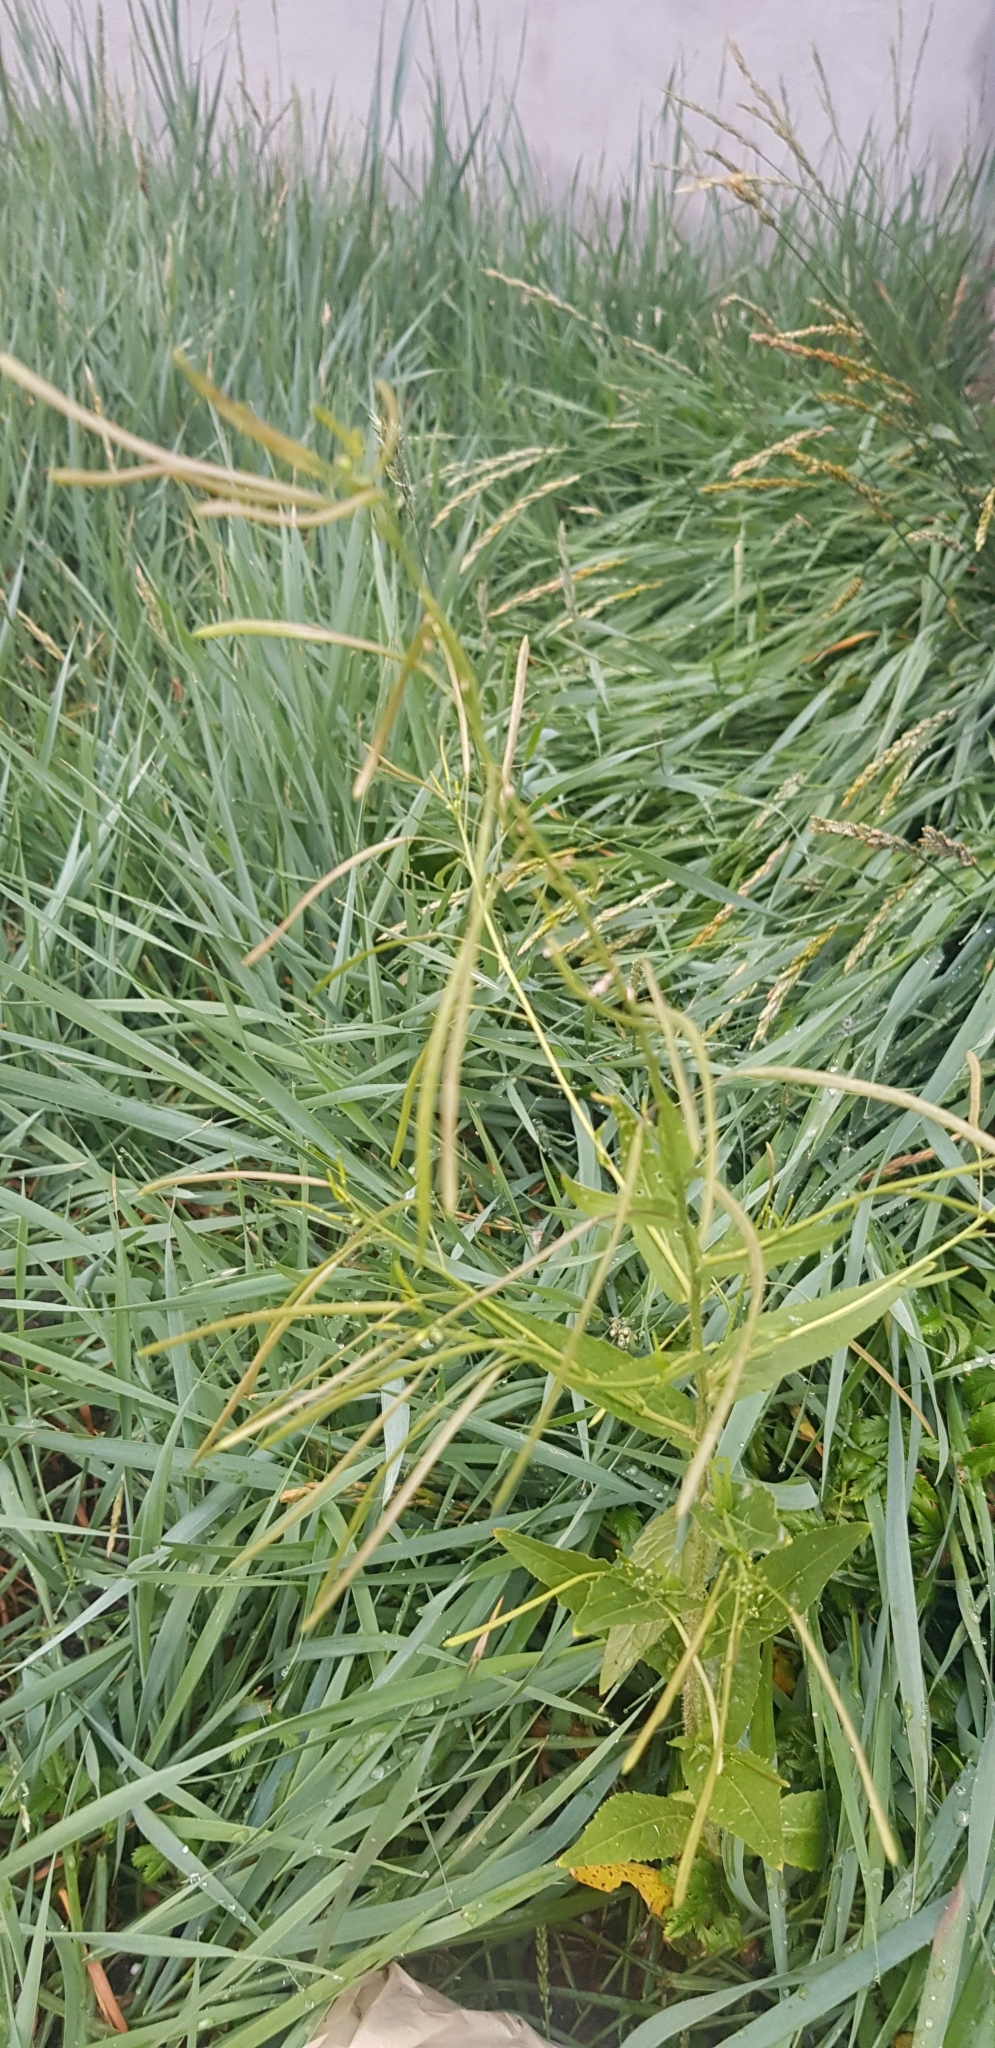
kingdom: Plantae
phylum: Tracheophyta
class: Magnoliopsida
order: Brassicales
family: Brassicaceae
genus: Catolobus
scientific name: Catolobus pendulus
